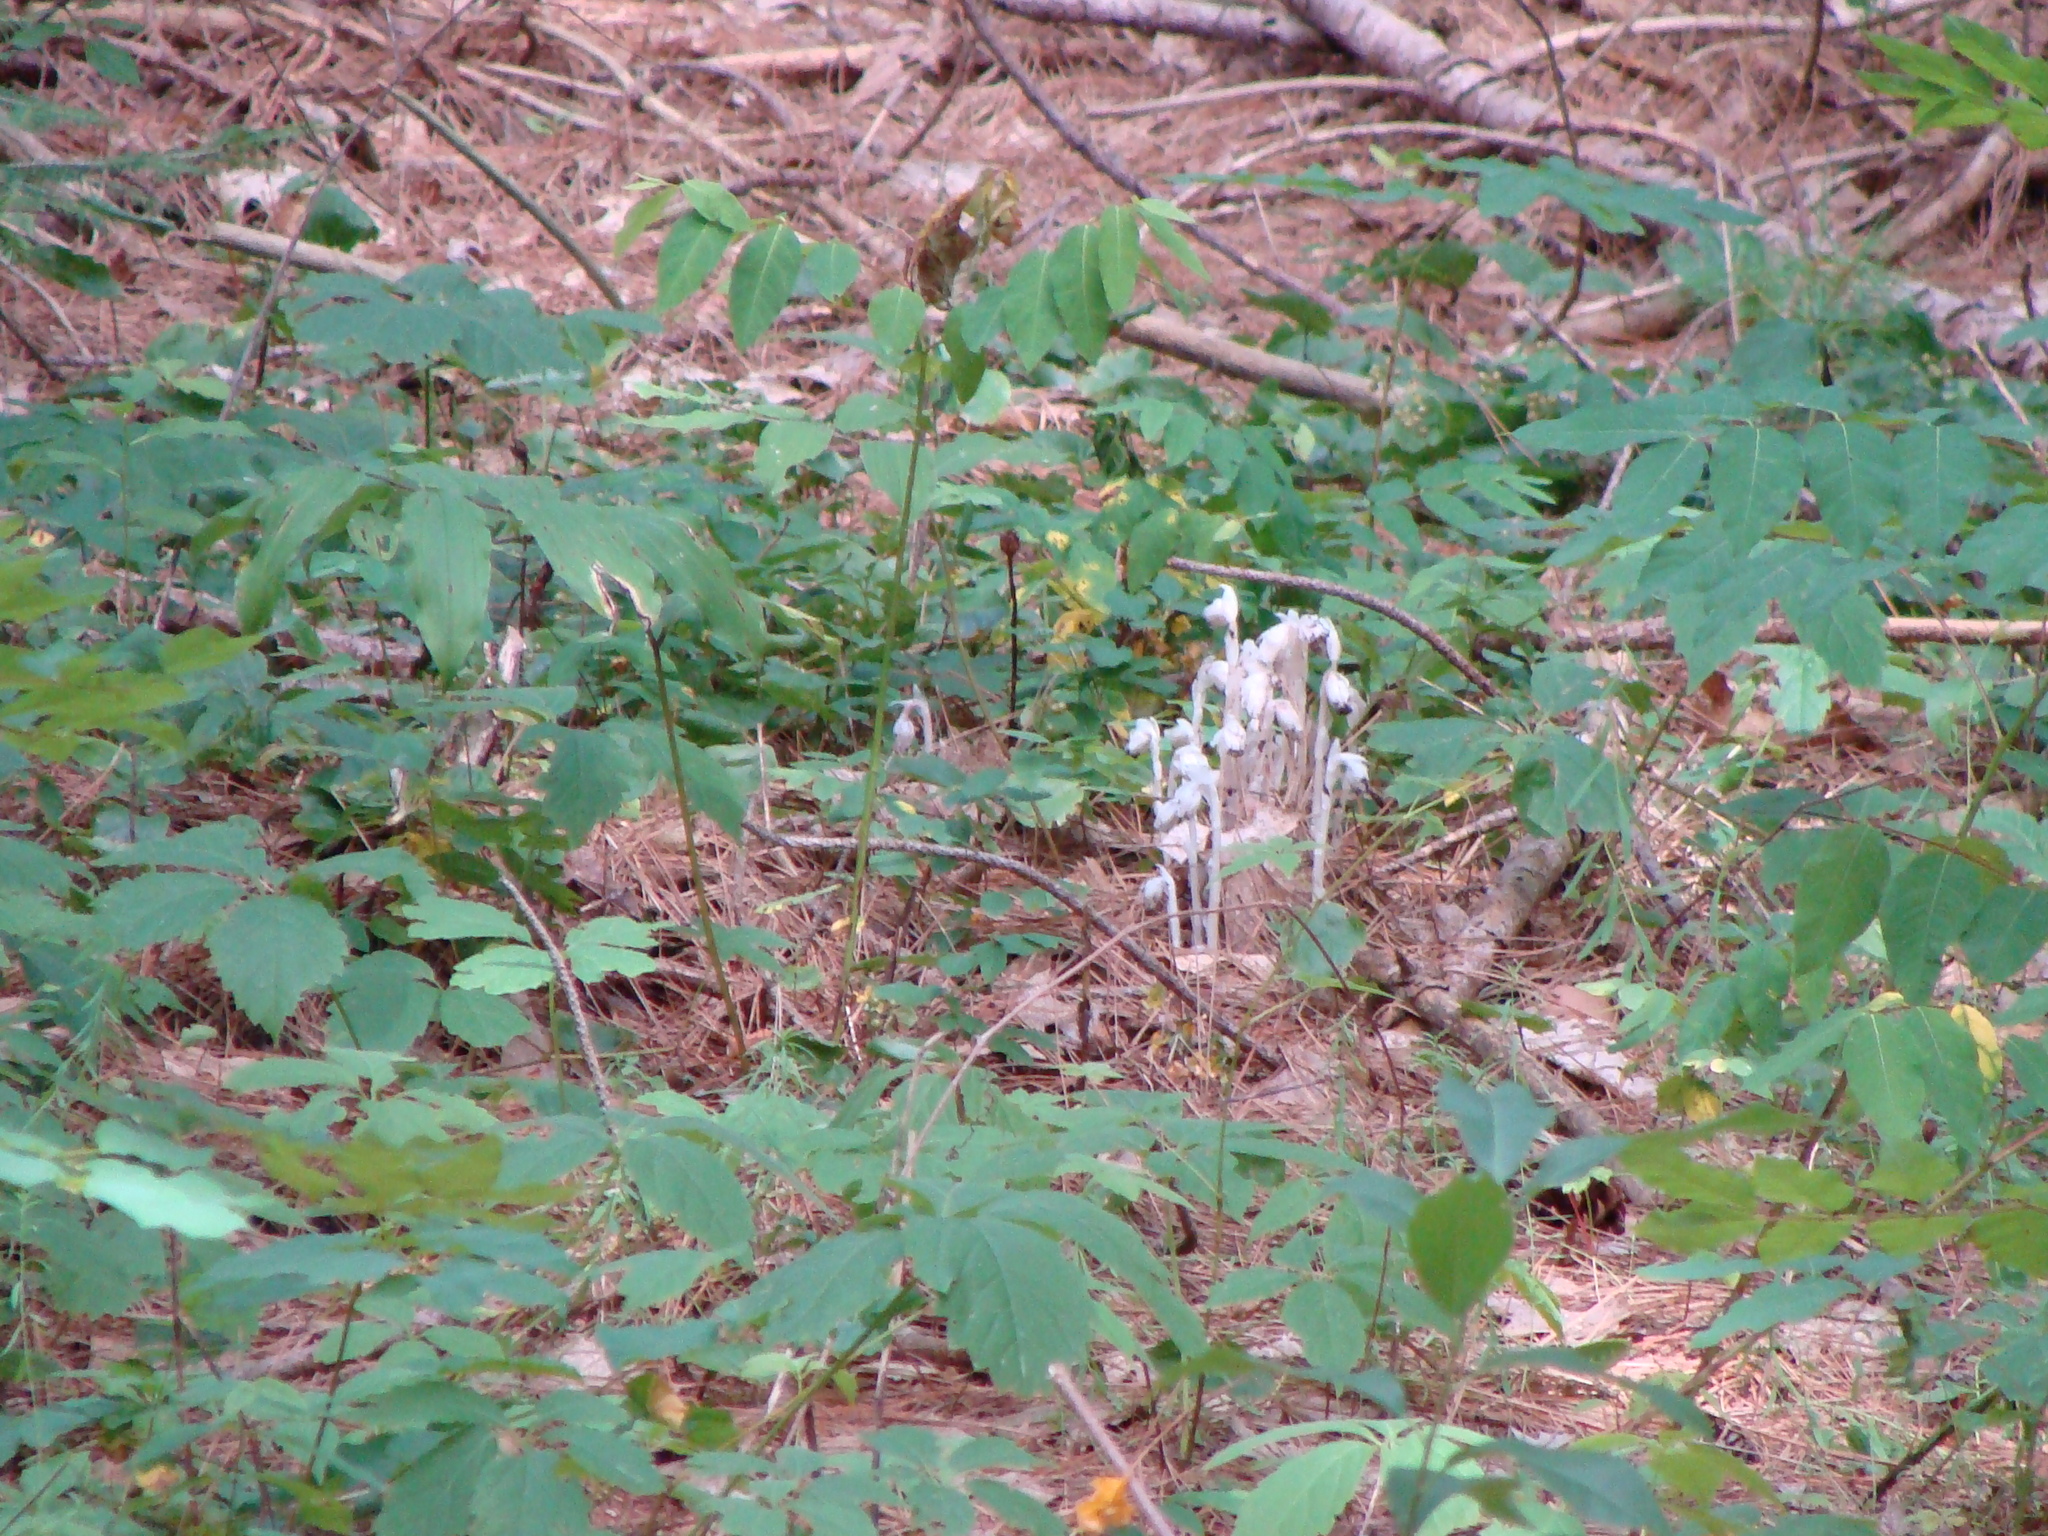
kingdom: Plantae
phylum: Tracheophyta
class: Magnoliopsida
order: Ericales
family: Ericaceae
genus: Monotropa
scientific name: Monotropa uniflora
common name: Convulsion root
